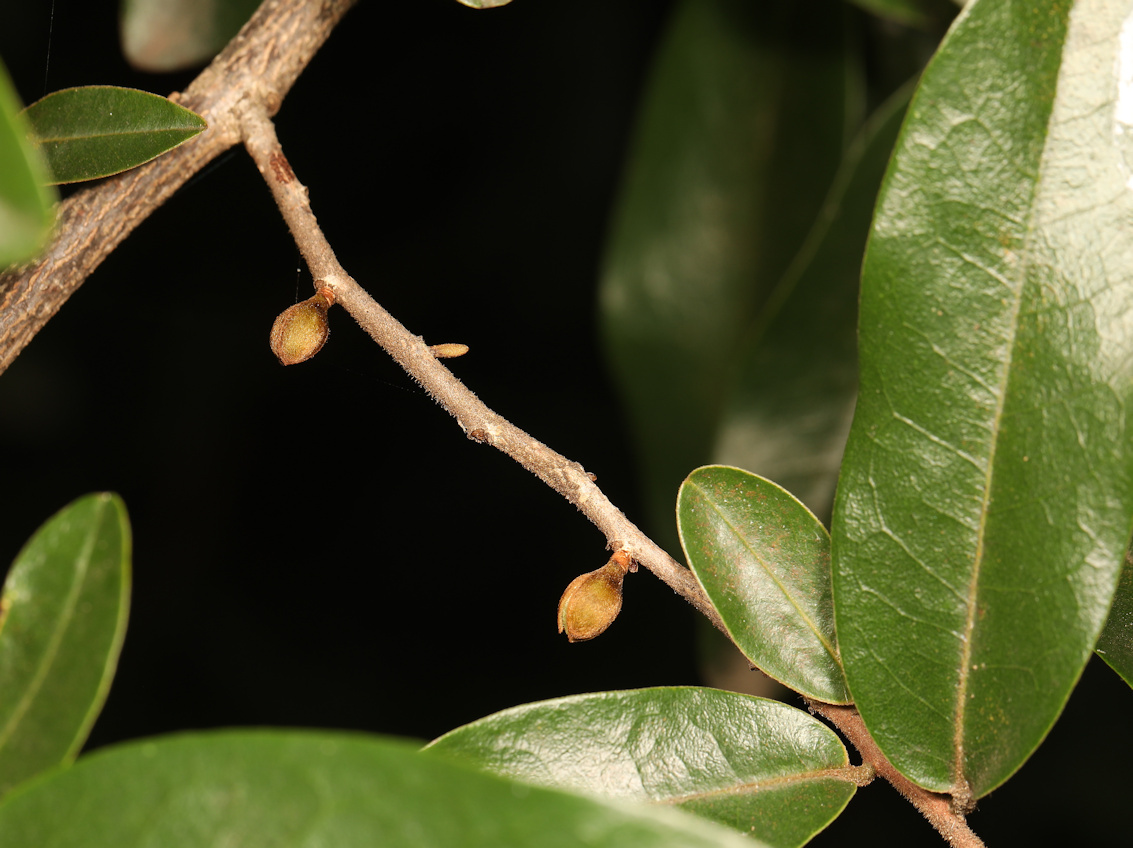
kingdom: Plantae
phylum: Tracheophyta
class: Magnoliopsida
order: Magnoliales
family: Annonaceae
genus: Hexalobus
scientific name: Hexalobus monopetalus
